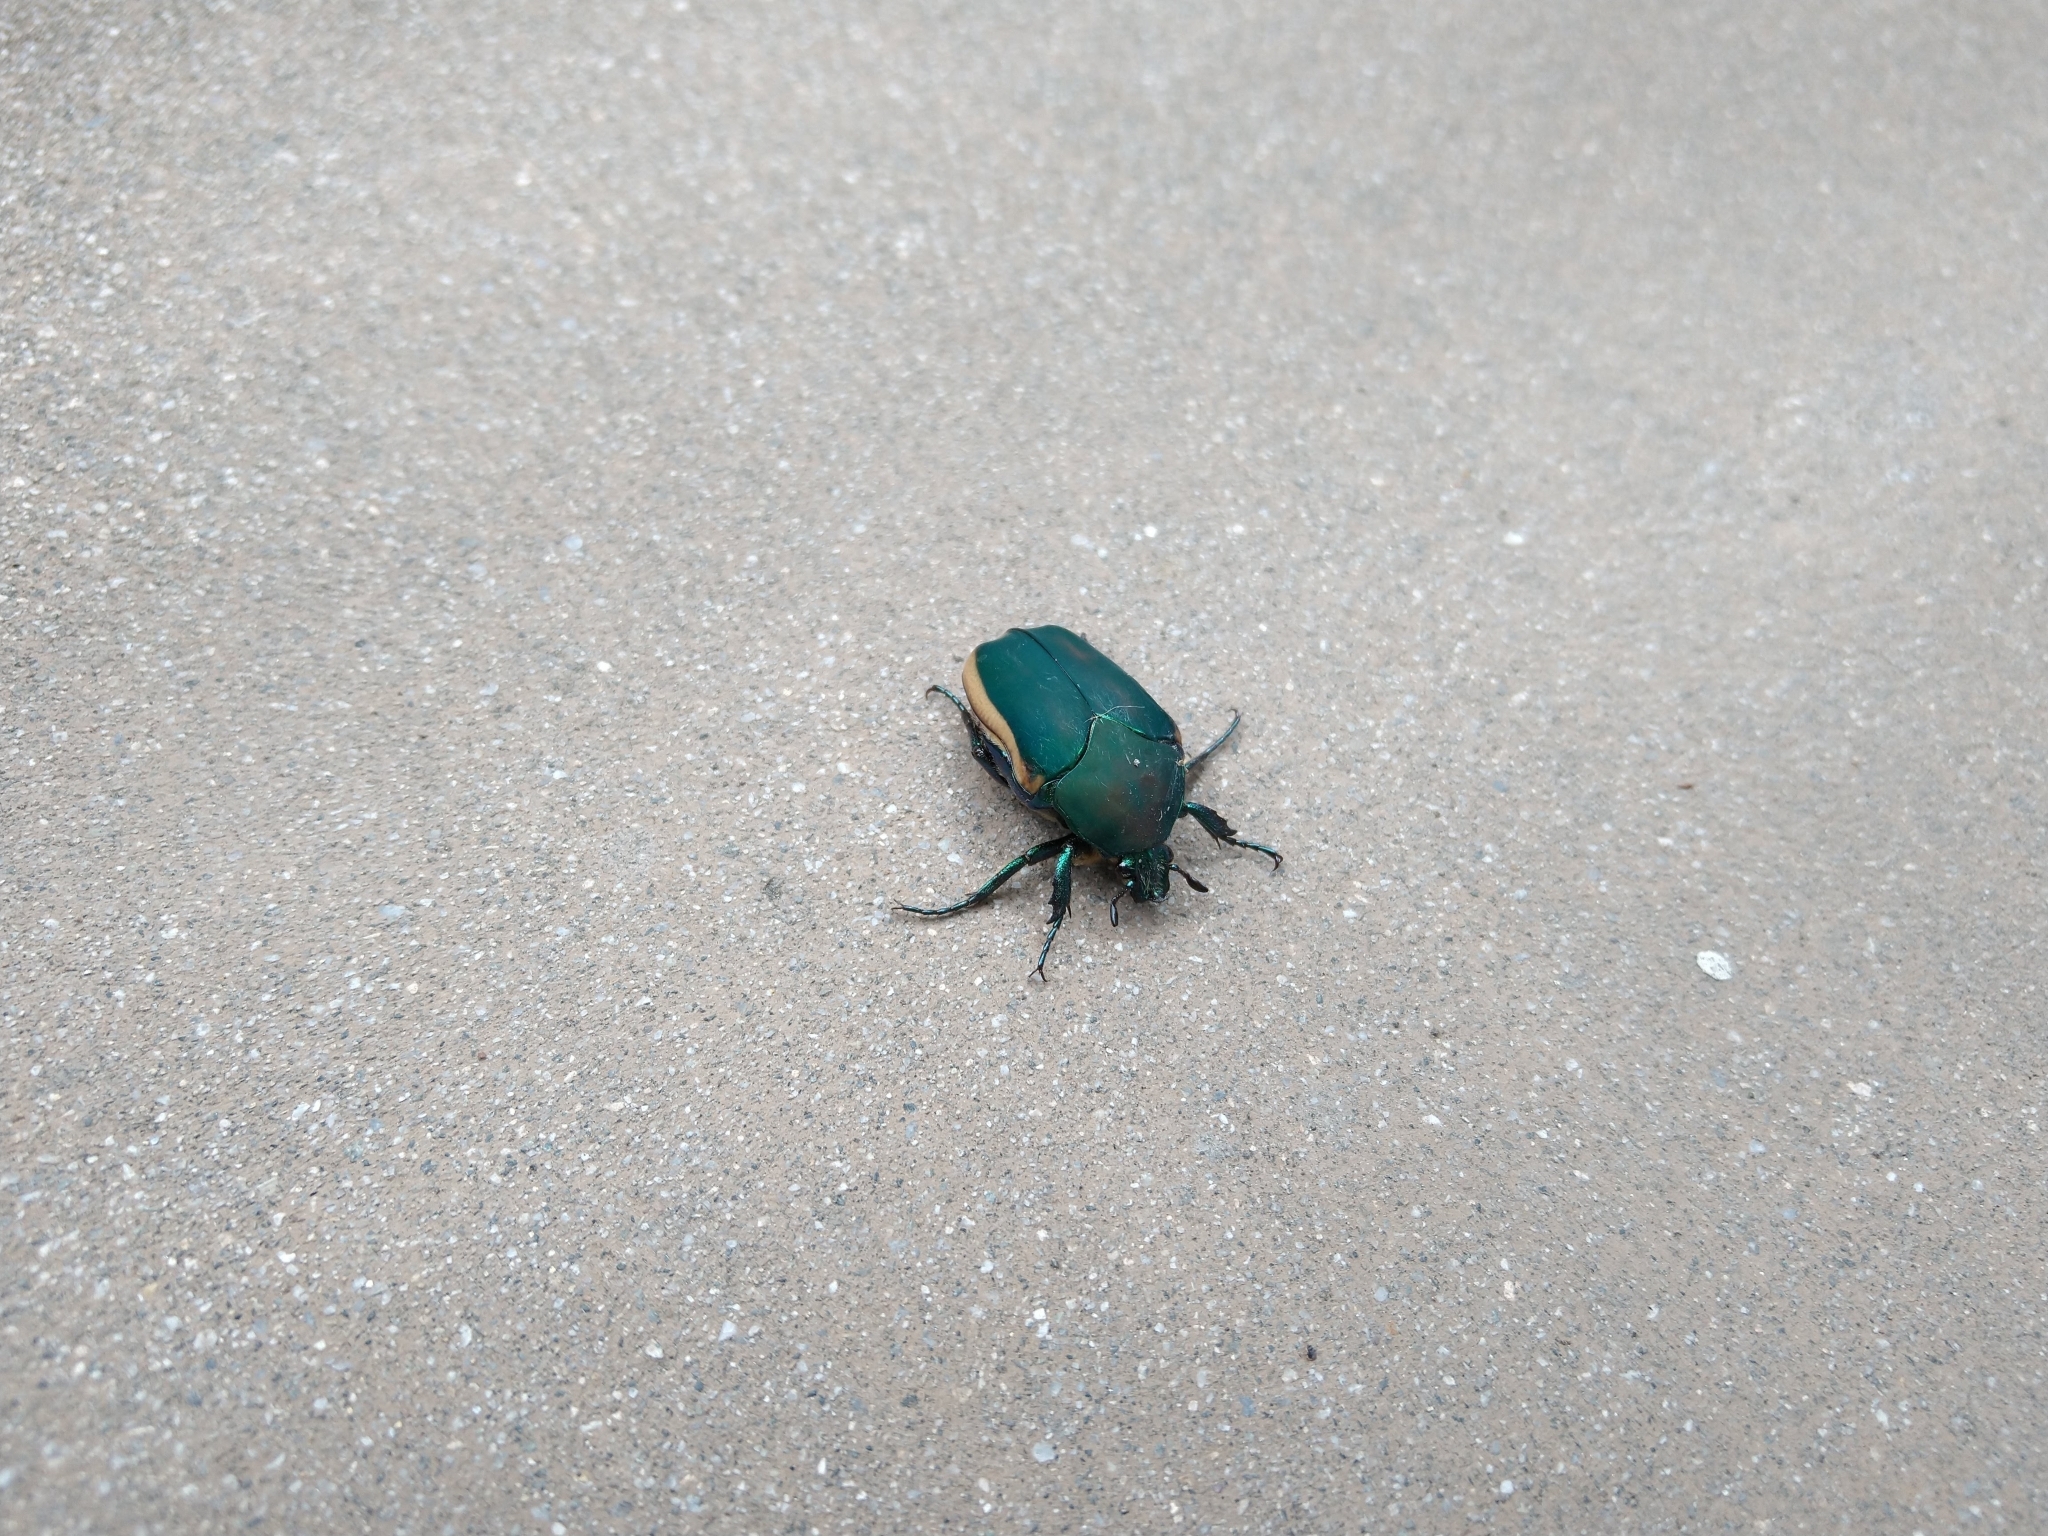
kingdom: Animalia
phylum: Arthropoda
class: Insecta
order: Coleoptera
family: Scarabaeidae
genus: Cotinis
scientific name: Cotinis mutabilis
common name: Figeater beetle
